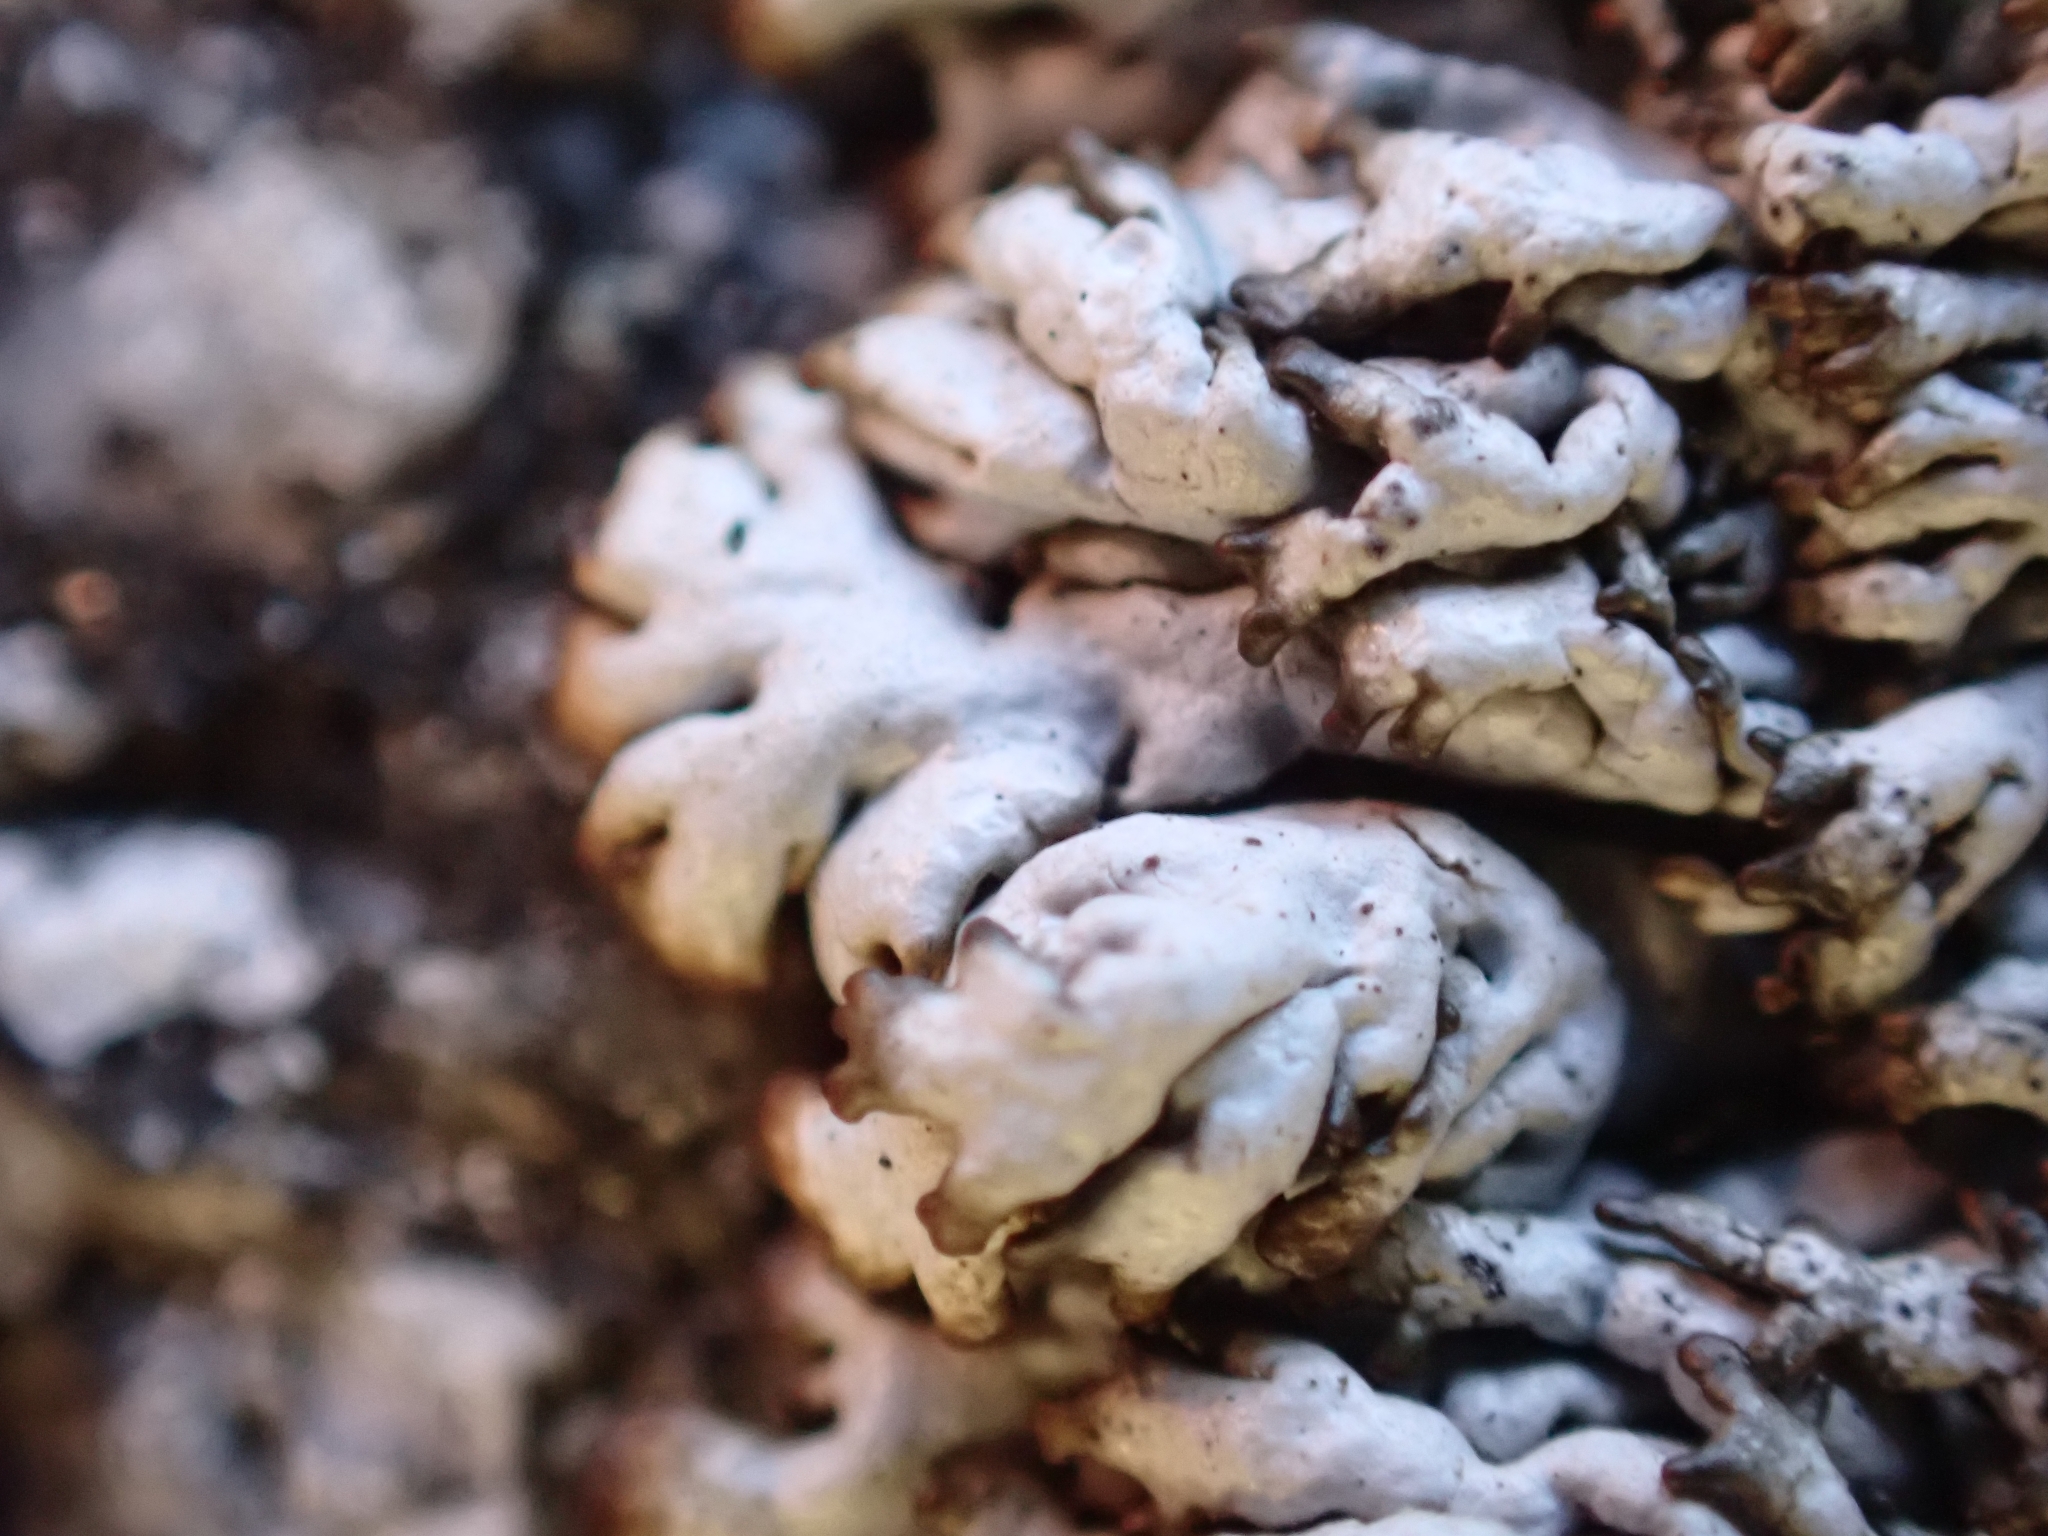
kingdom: Fungi
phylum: Ascomycota
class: Lecanoromycetes
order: Lecanorales
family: Parmeliaceae
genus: Brodoa
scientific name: Brodoa intestiniformis
